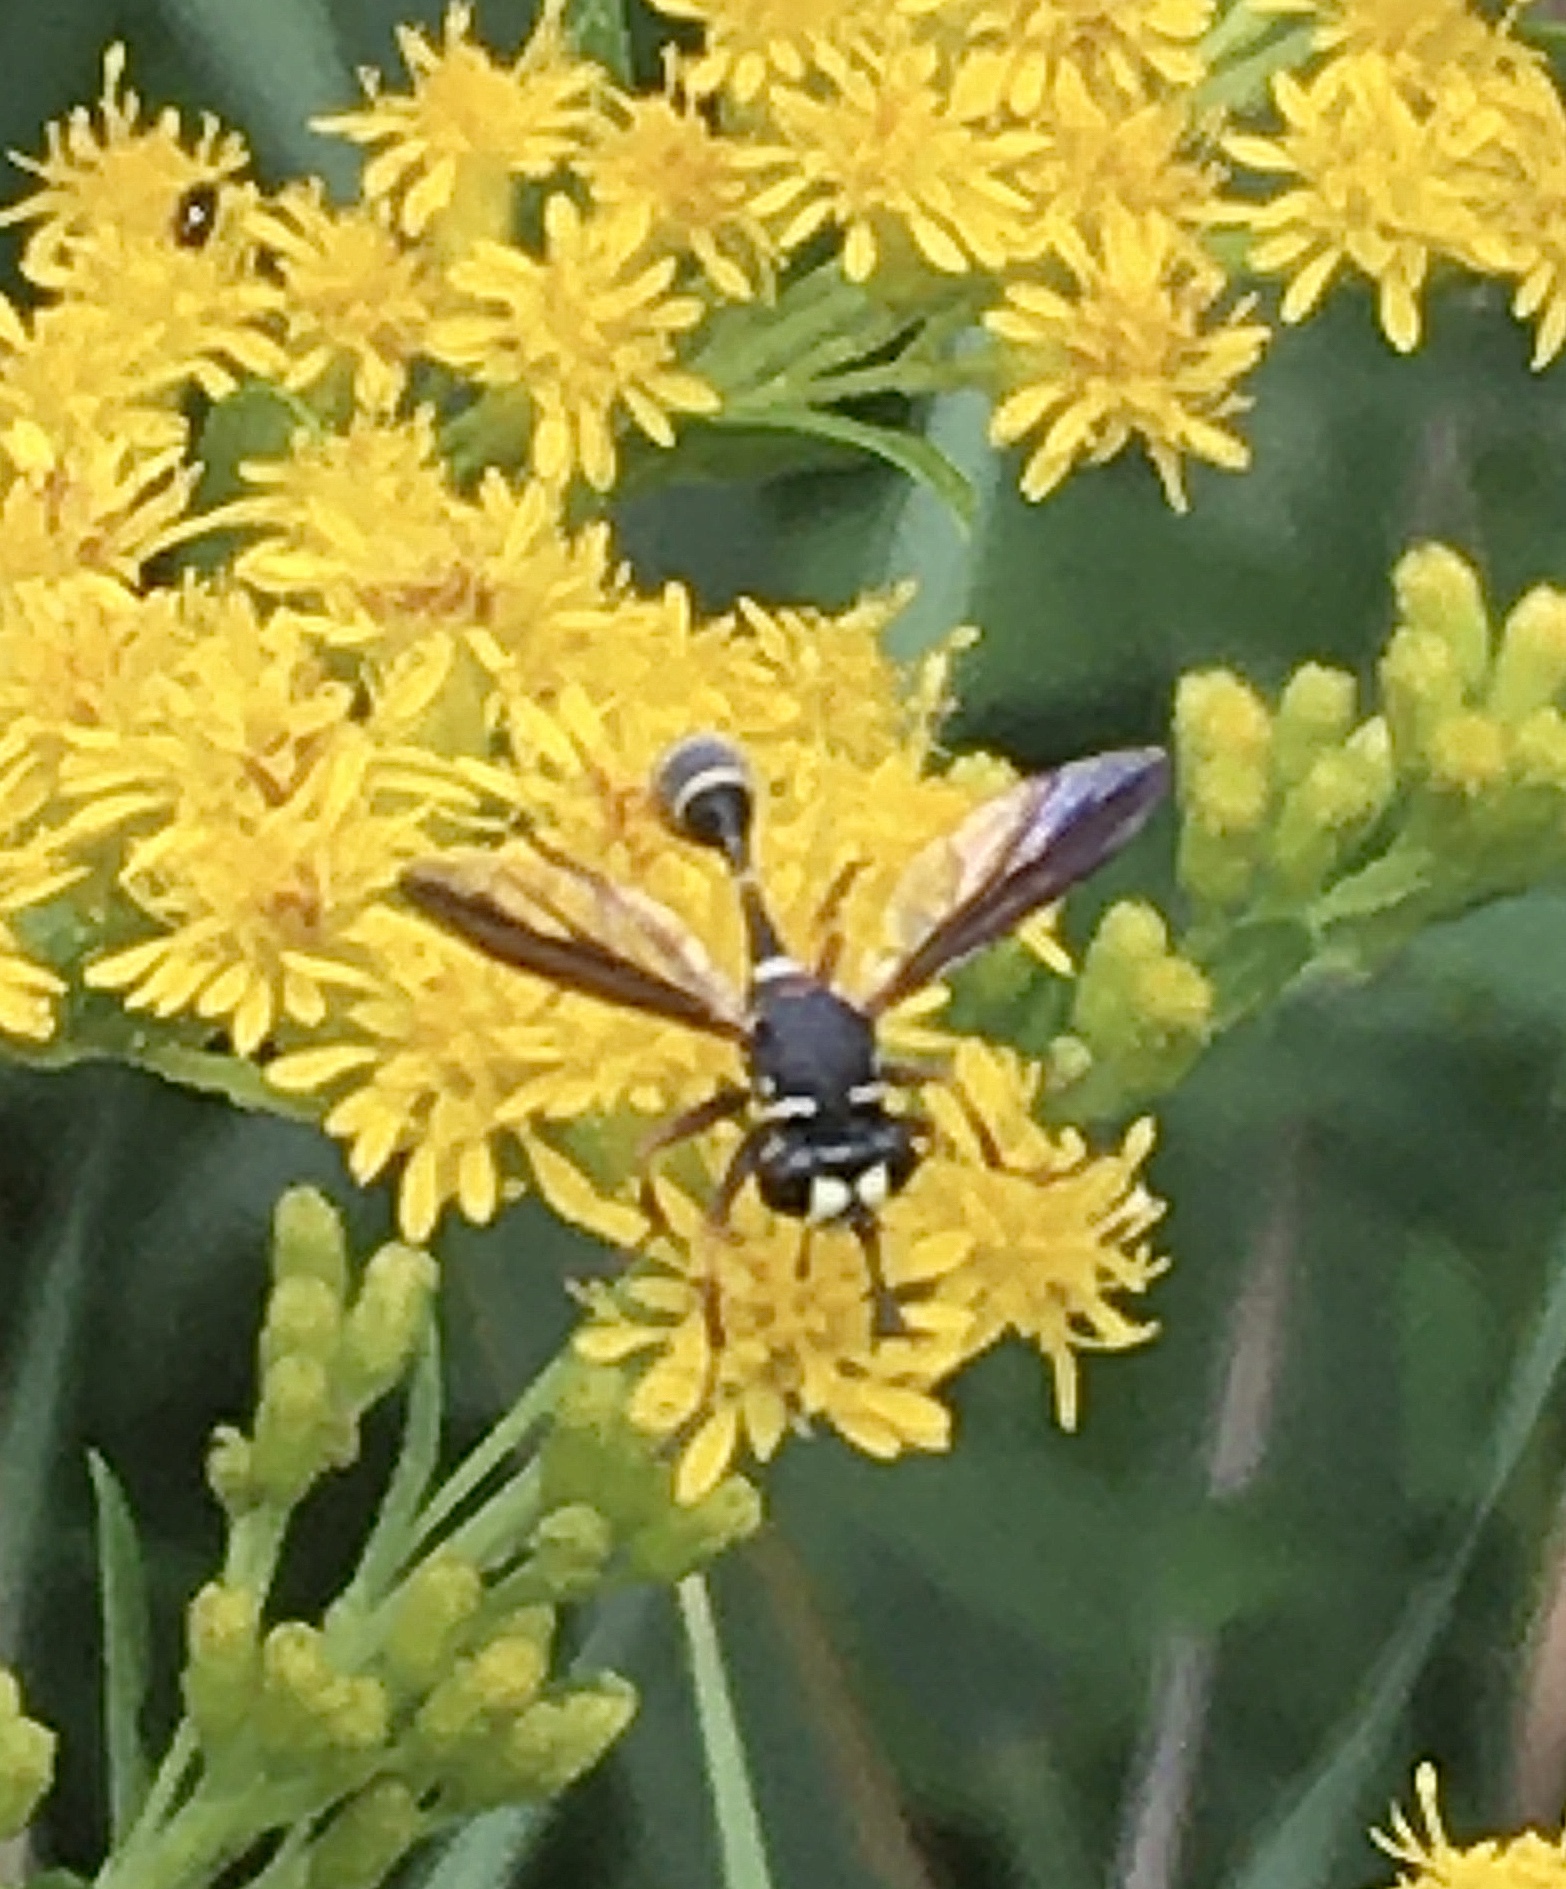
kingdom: Animalia
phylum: Arthropoda
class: Insecta
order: Diptera
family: Conopidae
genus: Physocephala
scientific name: Physocephala marginata
